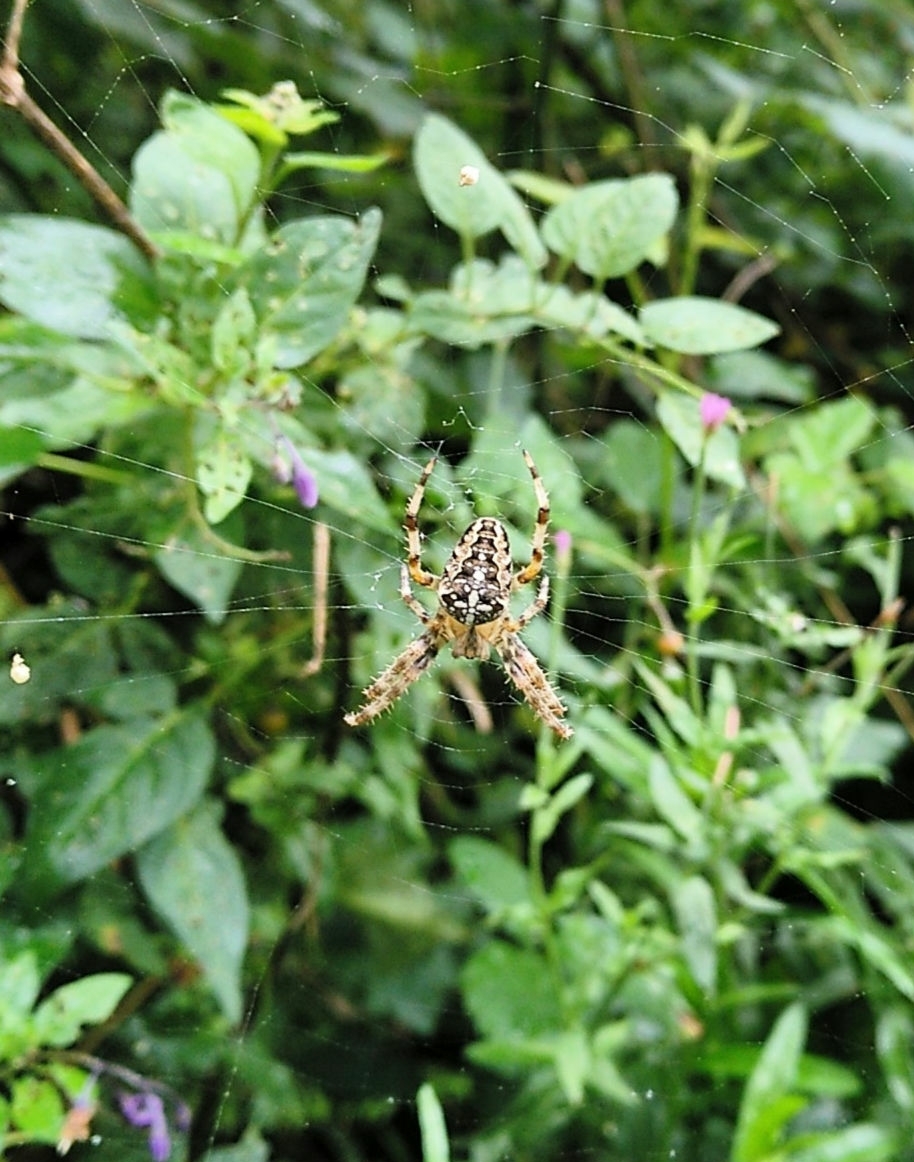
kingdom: Animalia
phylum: Arthropoda
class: Arachnida
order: Araneae
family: Araneidae
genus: Araneus
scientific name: Araneus diadematus
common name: Cross orbweaver
